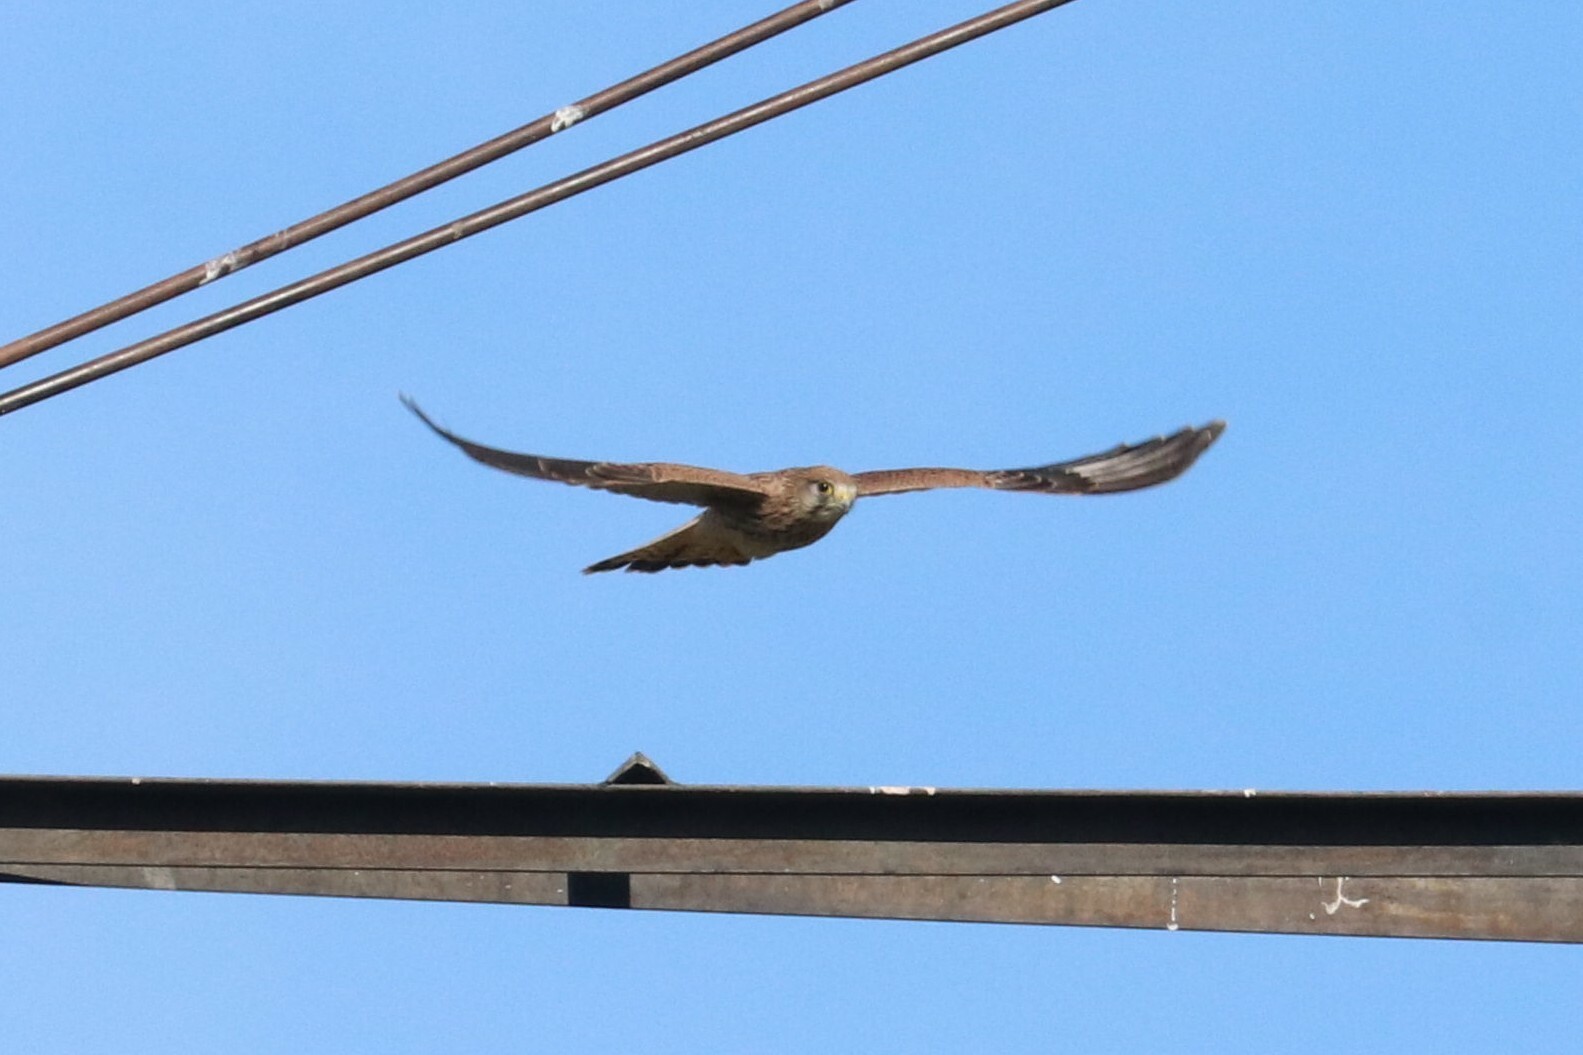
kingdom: Animalia
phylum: Chordata
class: Aves
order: Falconiformes
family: Falconidae
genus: Falco
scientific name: Falco tinnunculus
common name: Common kestrel
